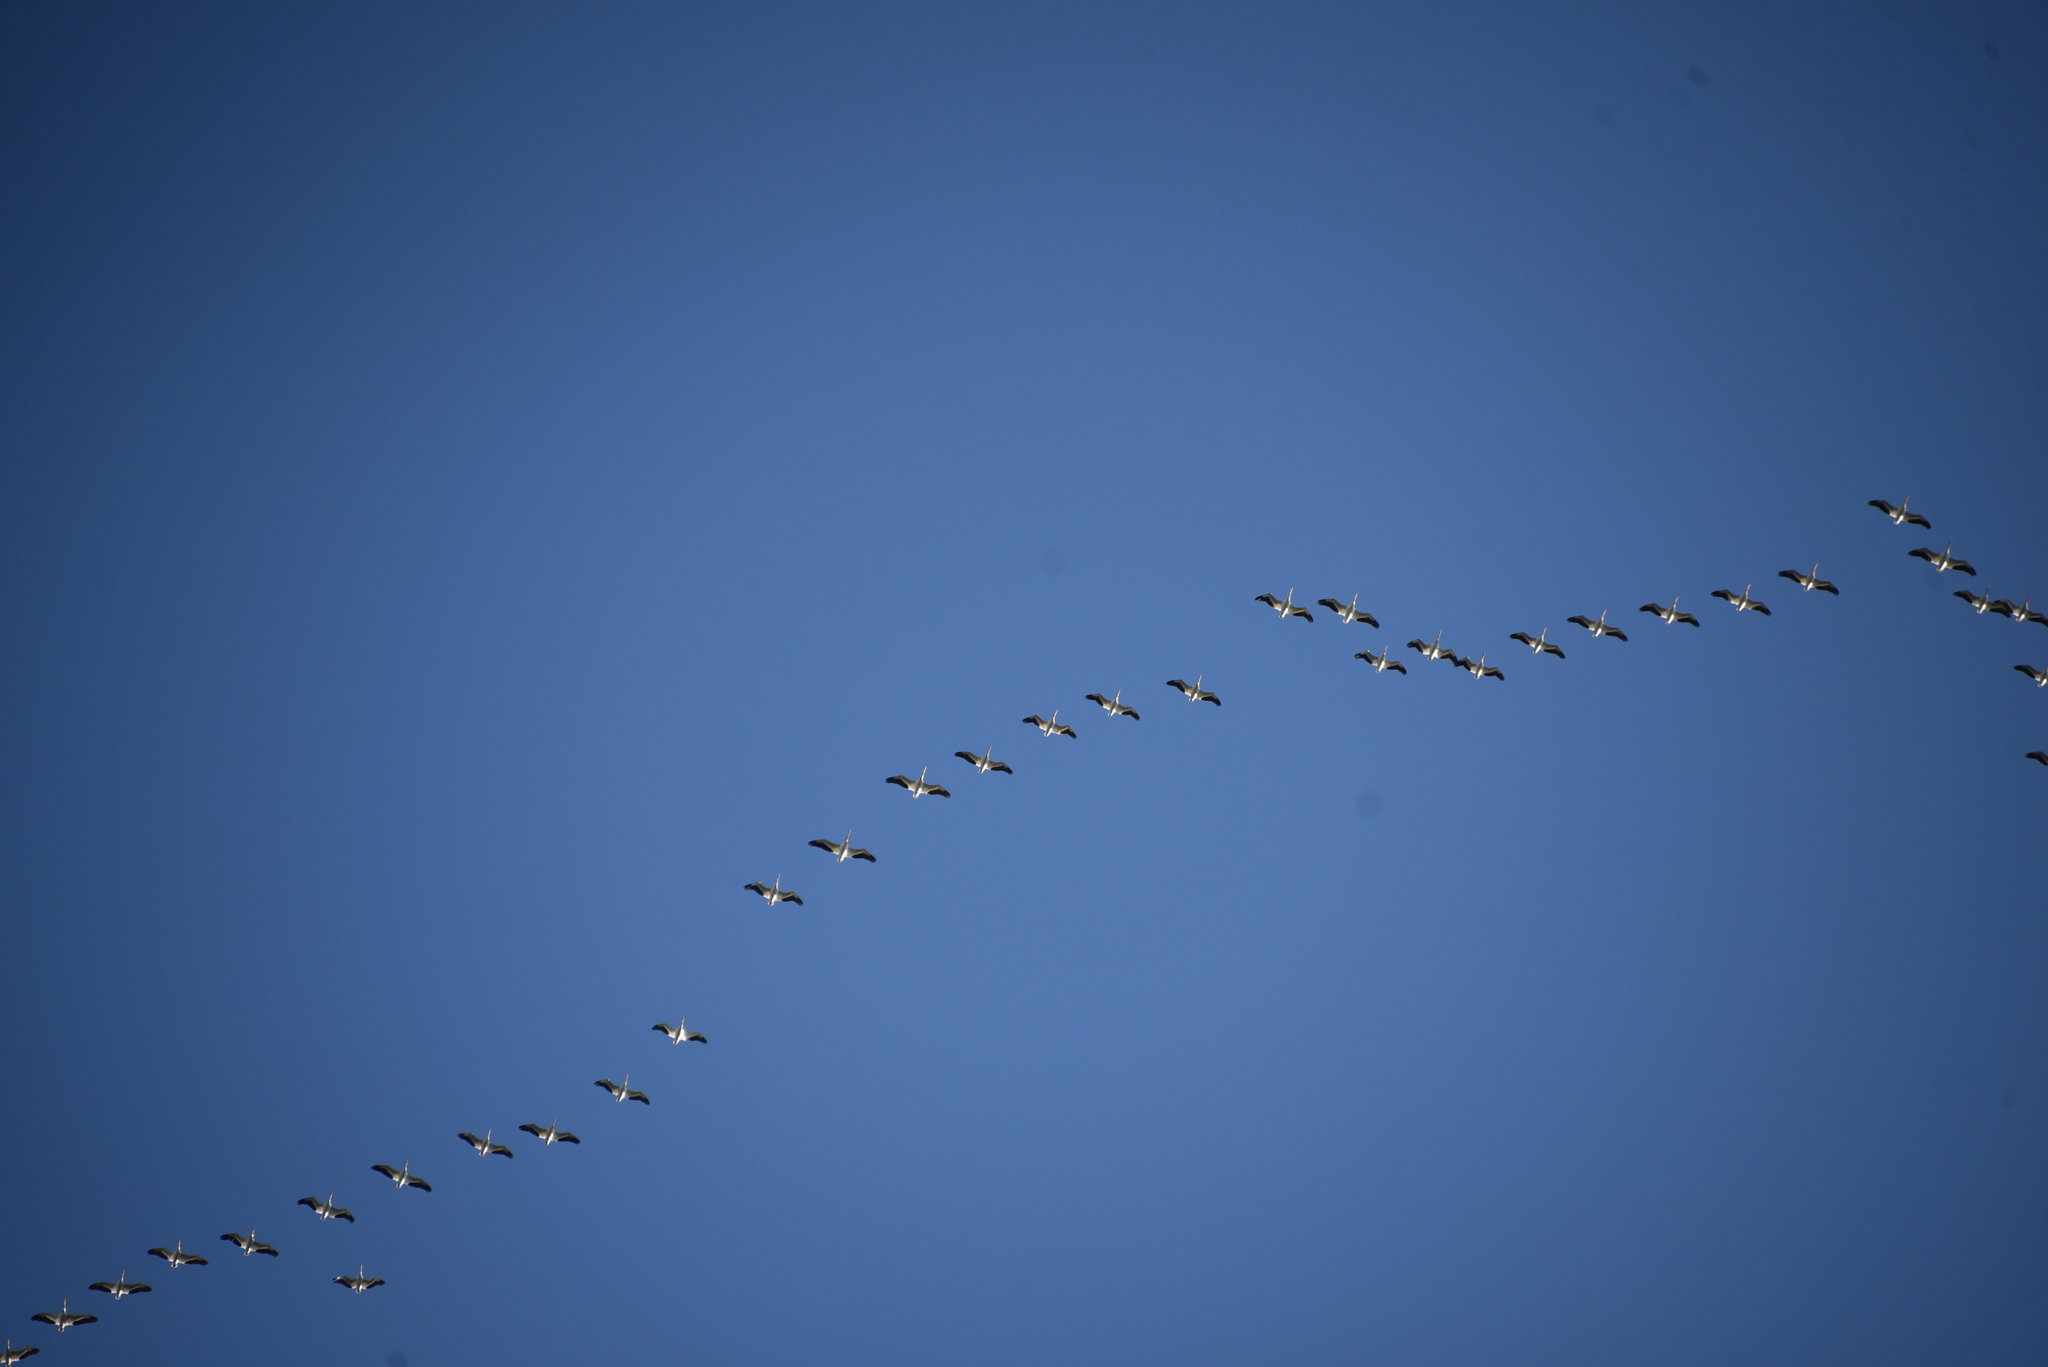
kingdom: Animalia
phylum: Chordata
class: Aves
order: Pelecaniformes
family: Pelecanidae
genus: Pelecanus
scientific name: Pelecanus erythrorhynchos
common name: American white pelican
